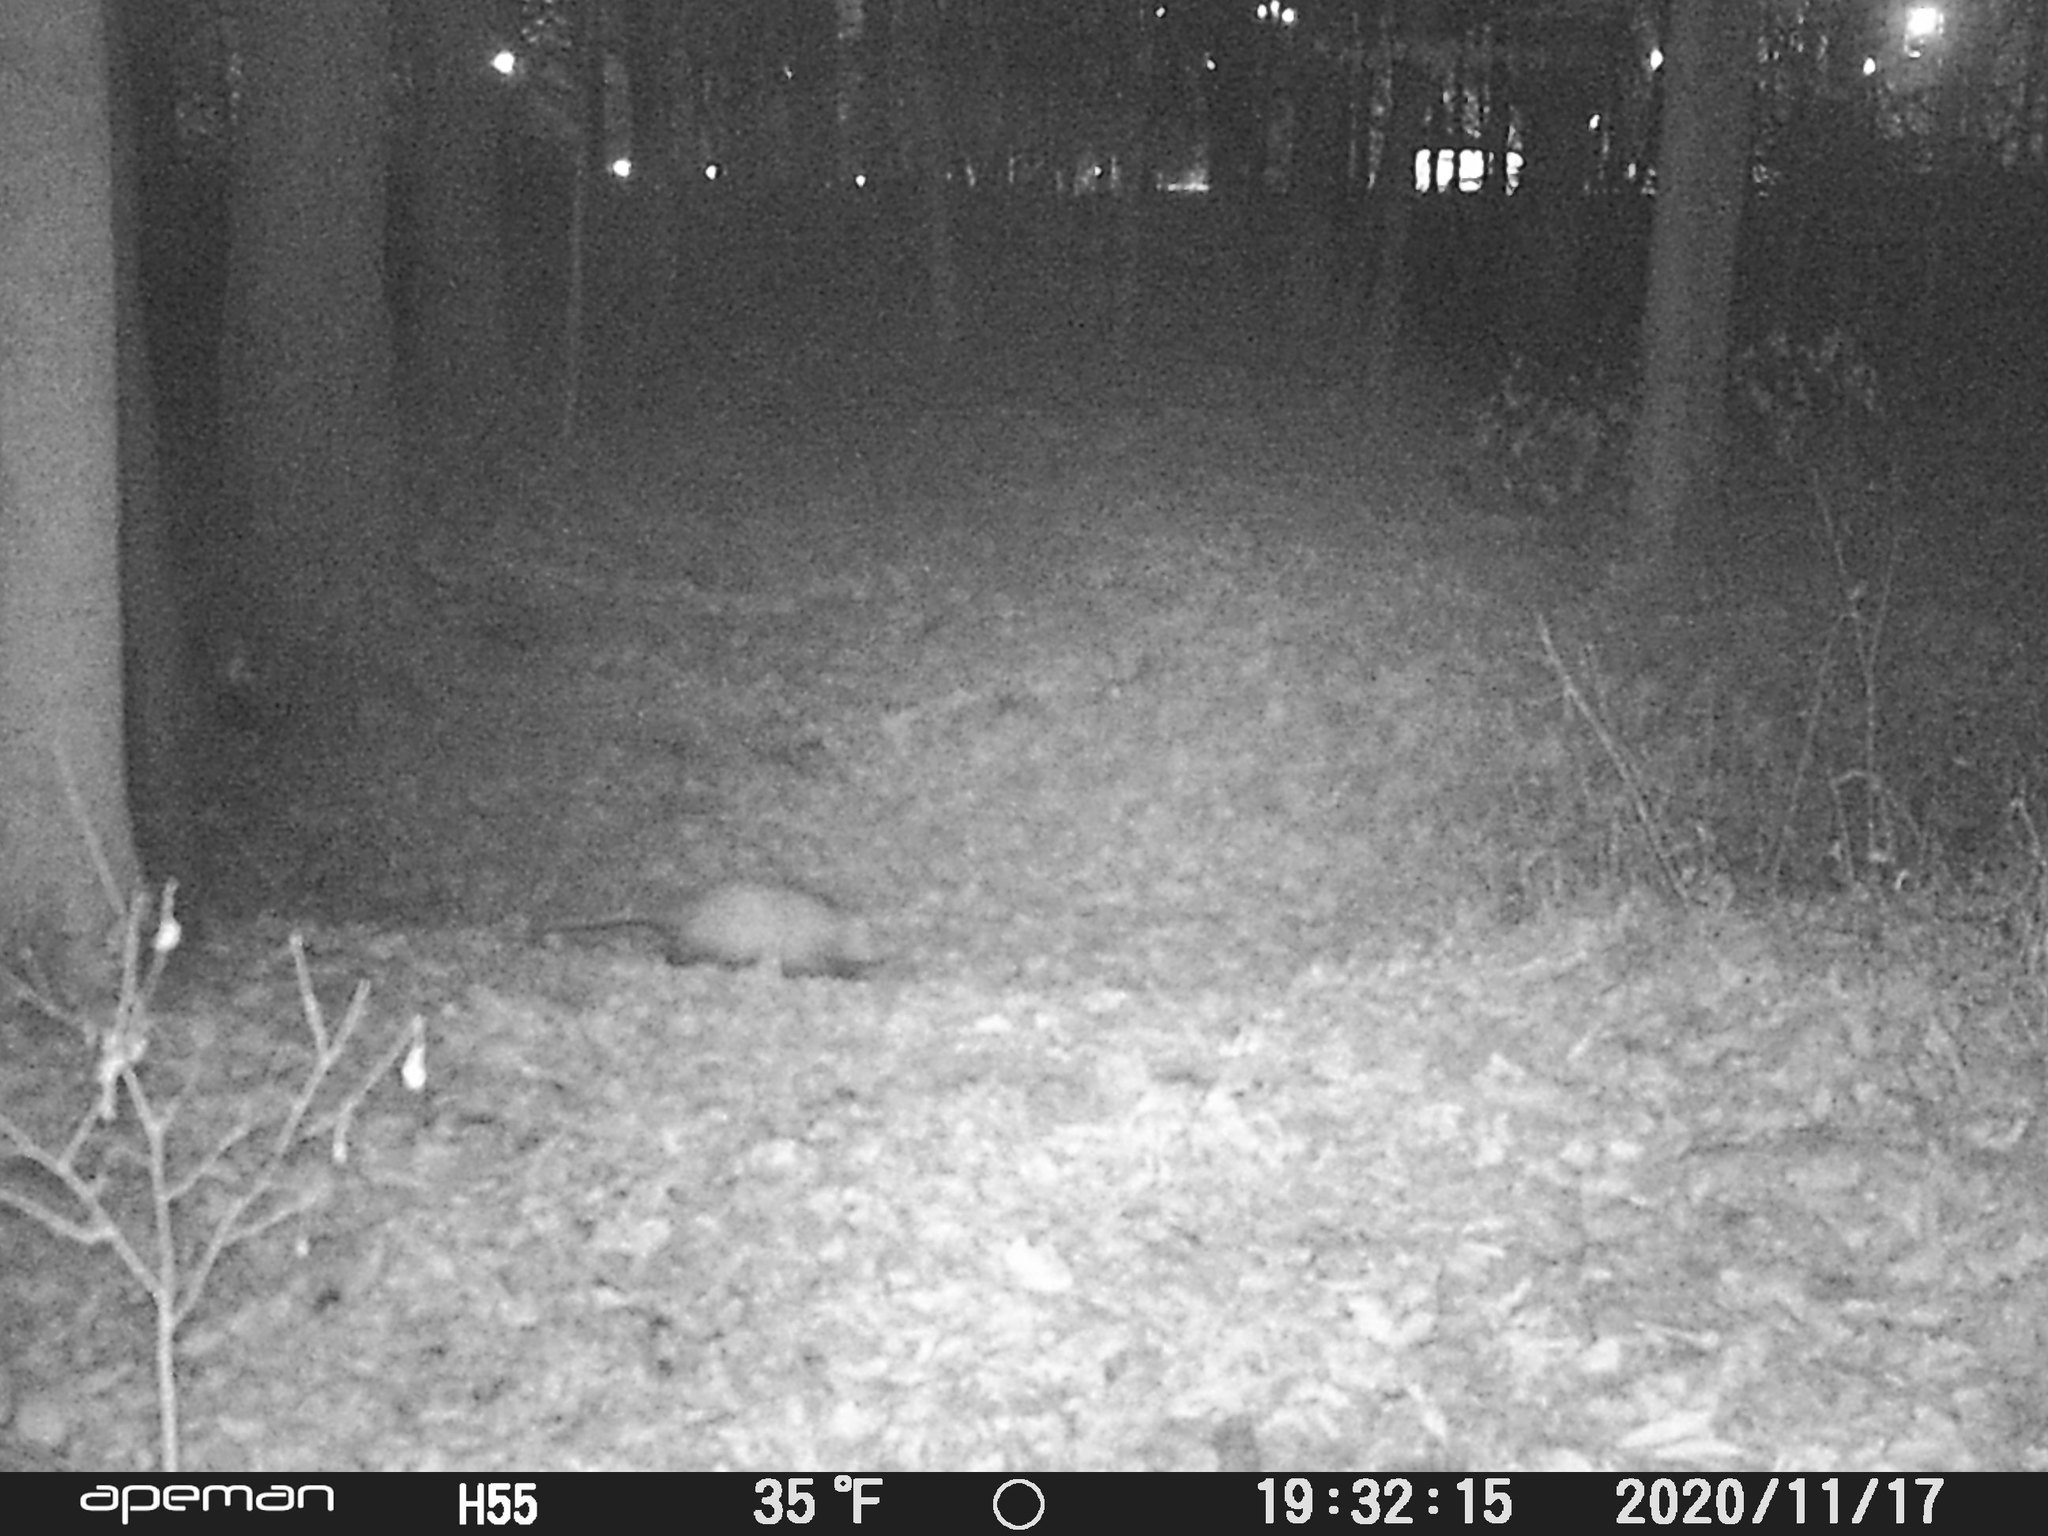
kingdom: Animalia
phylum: Chordata
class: Mammalia
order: Didelphimorphia
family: Didelphidae
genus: Didelphis
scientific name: Didelphis virginiana
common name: Virginia opossum
